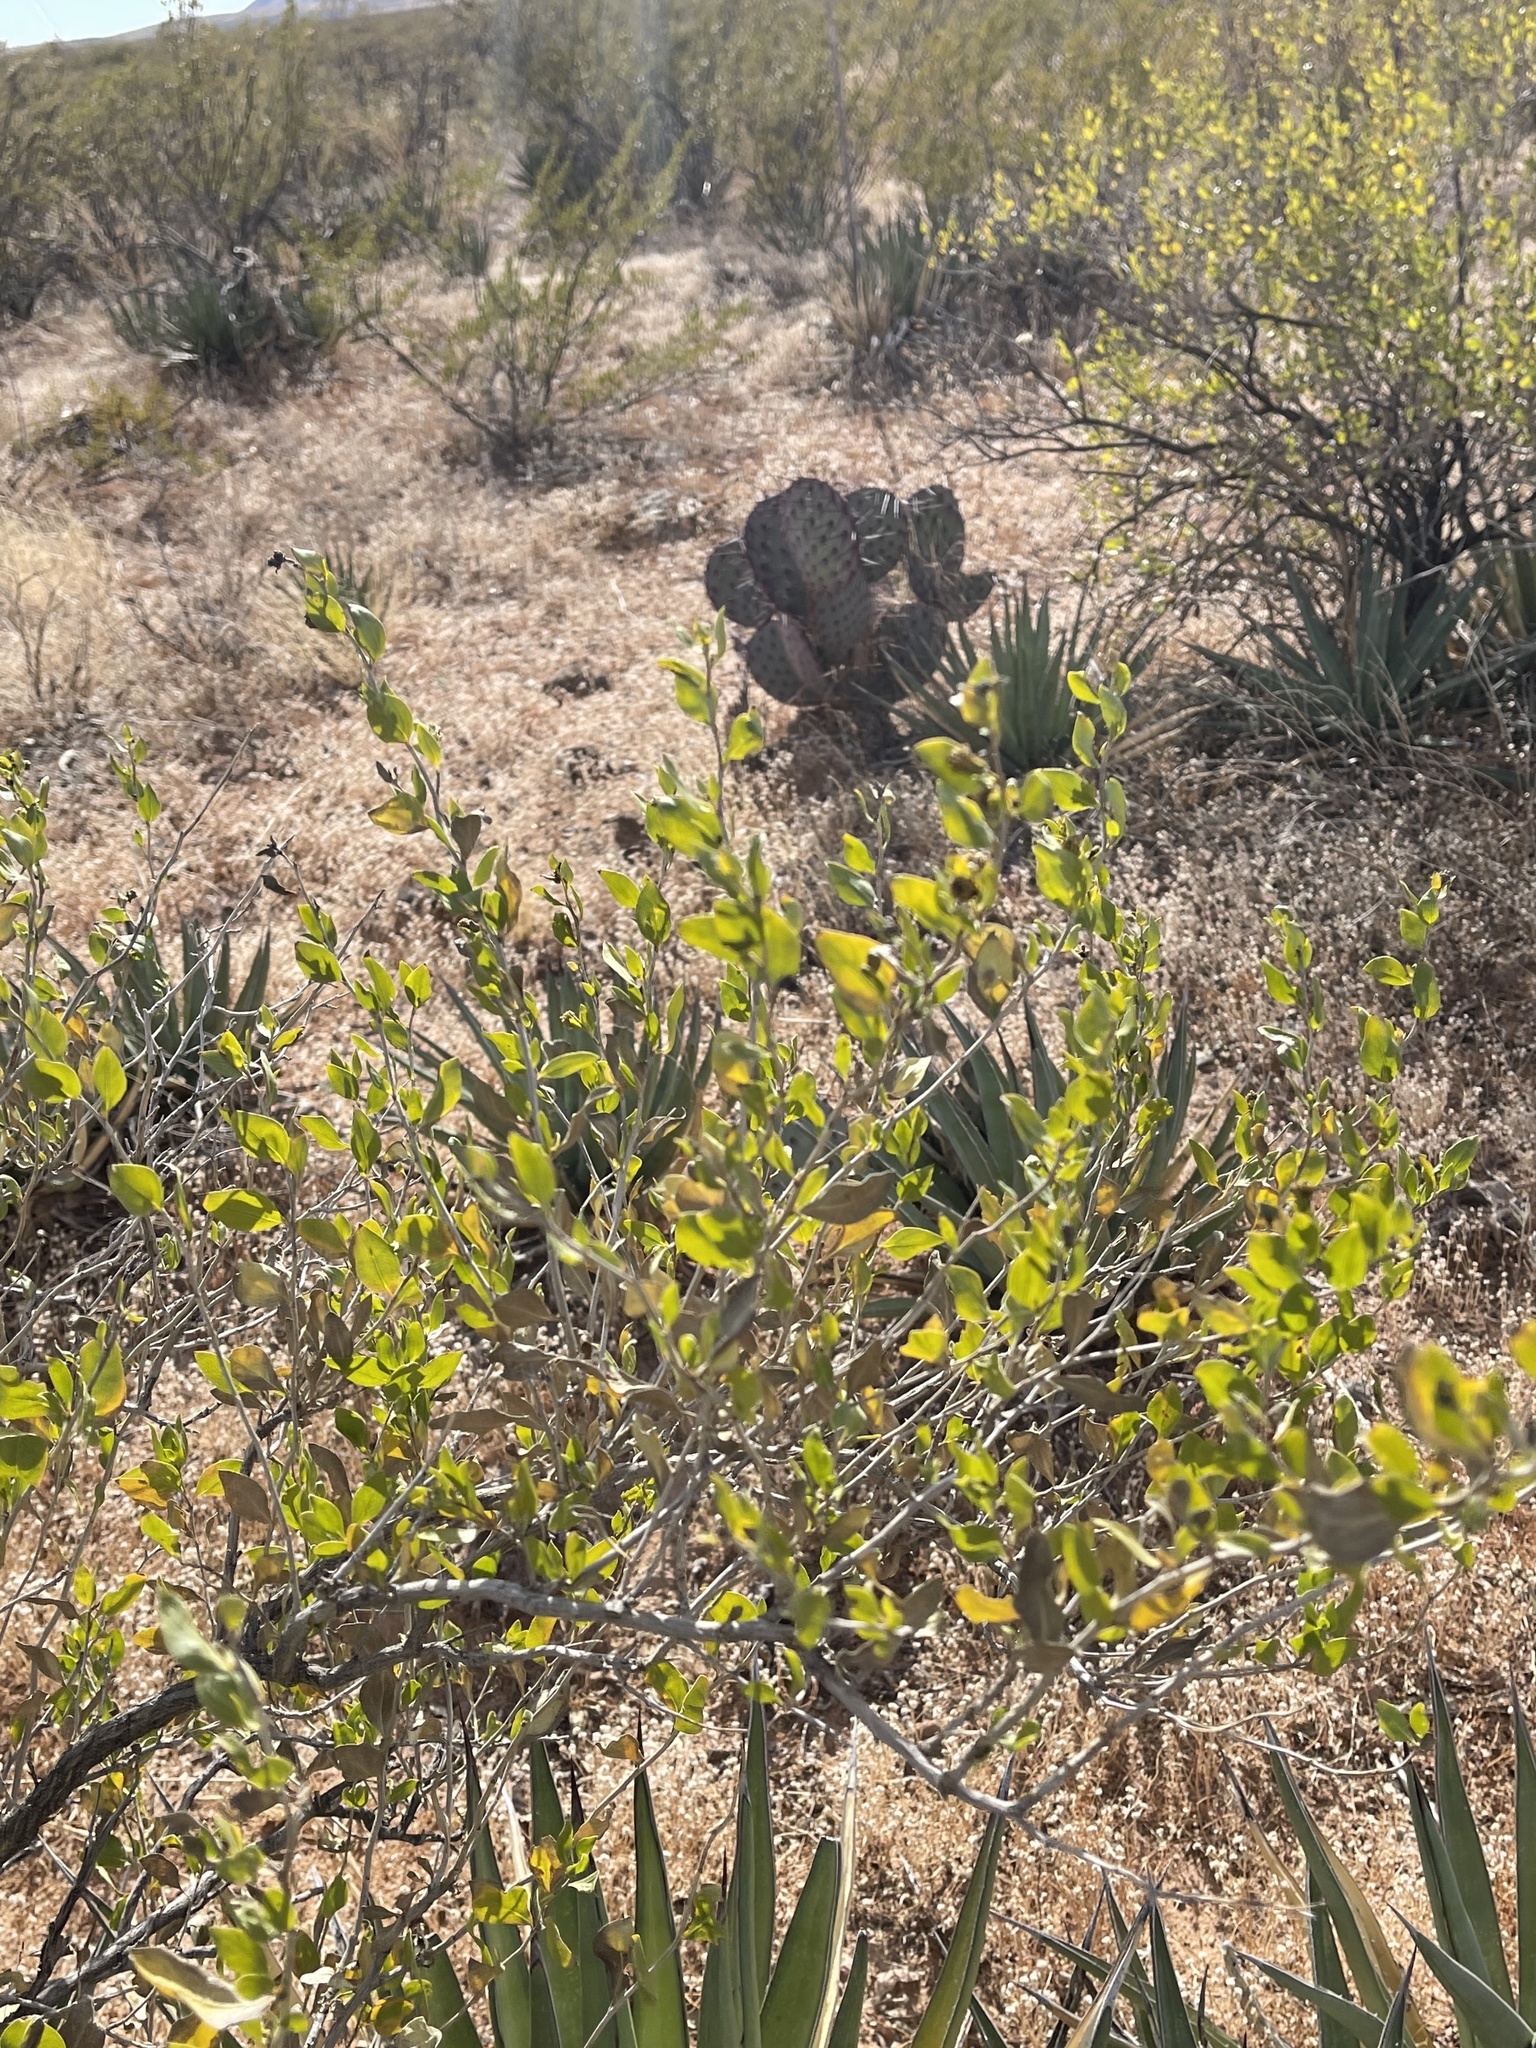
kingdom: Plantae
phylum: Tracheophyta
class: Magnoliopsida
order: Asterales
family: Asteraceae
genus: Flourensia
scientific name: Flourensia cernua
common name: Varnishbush
